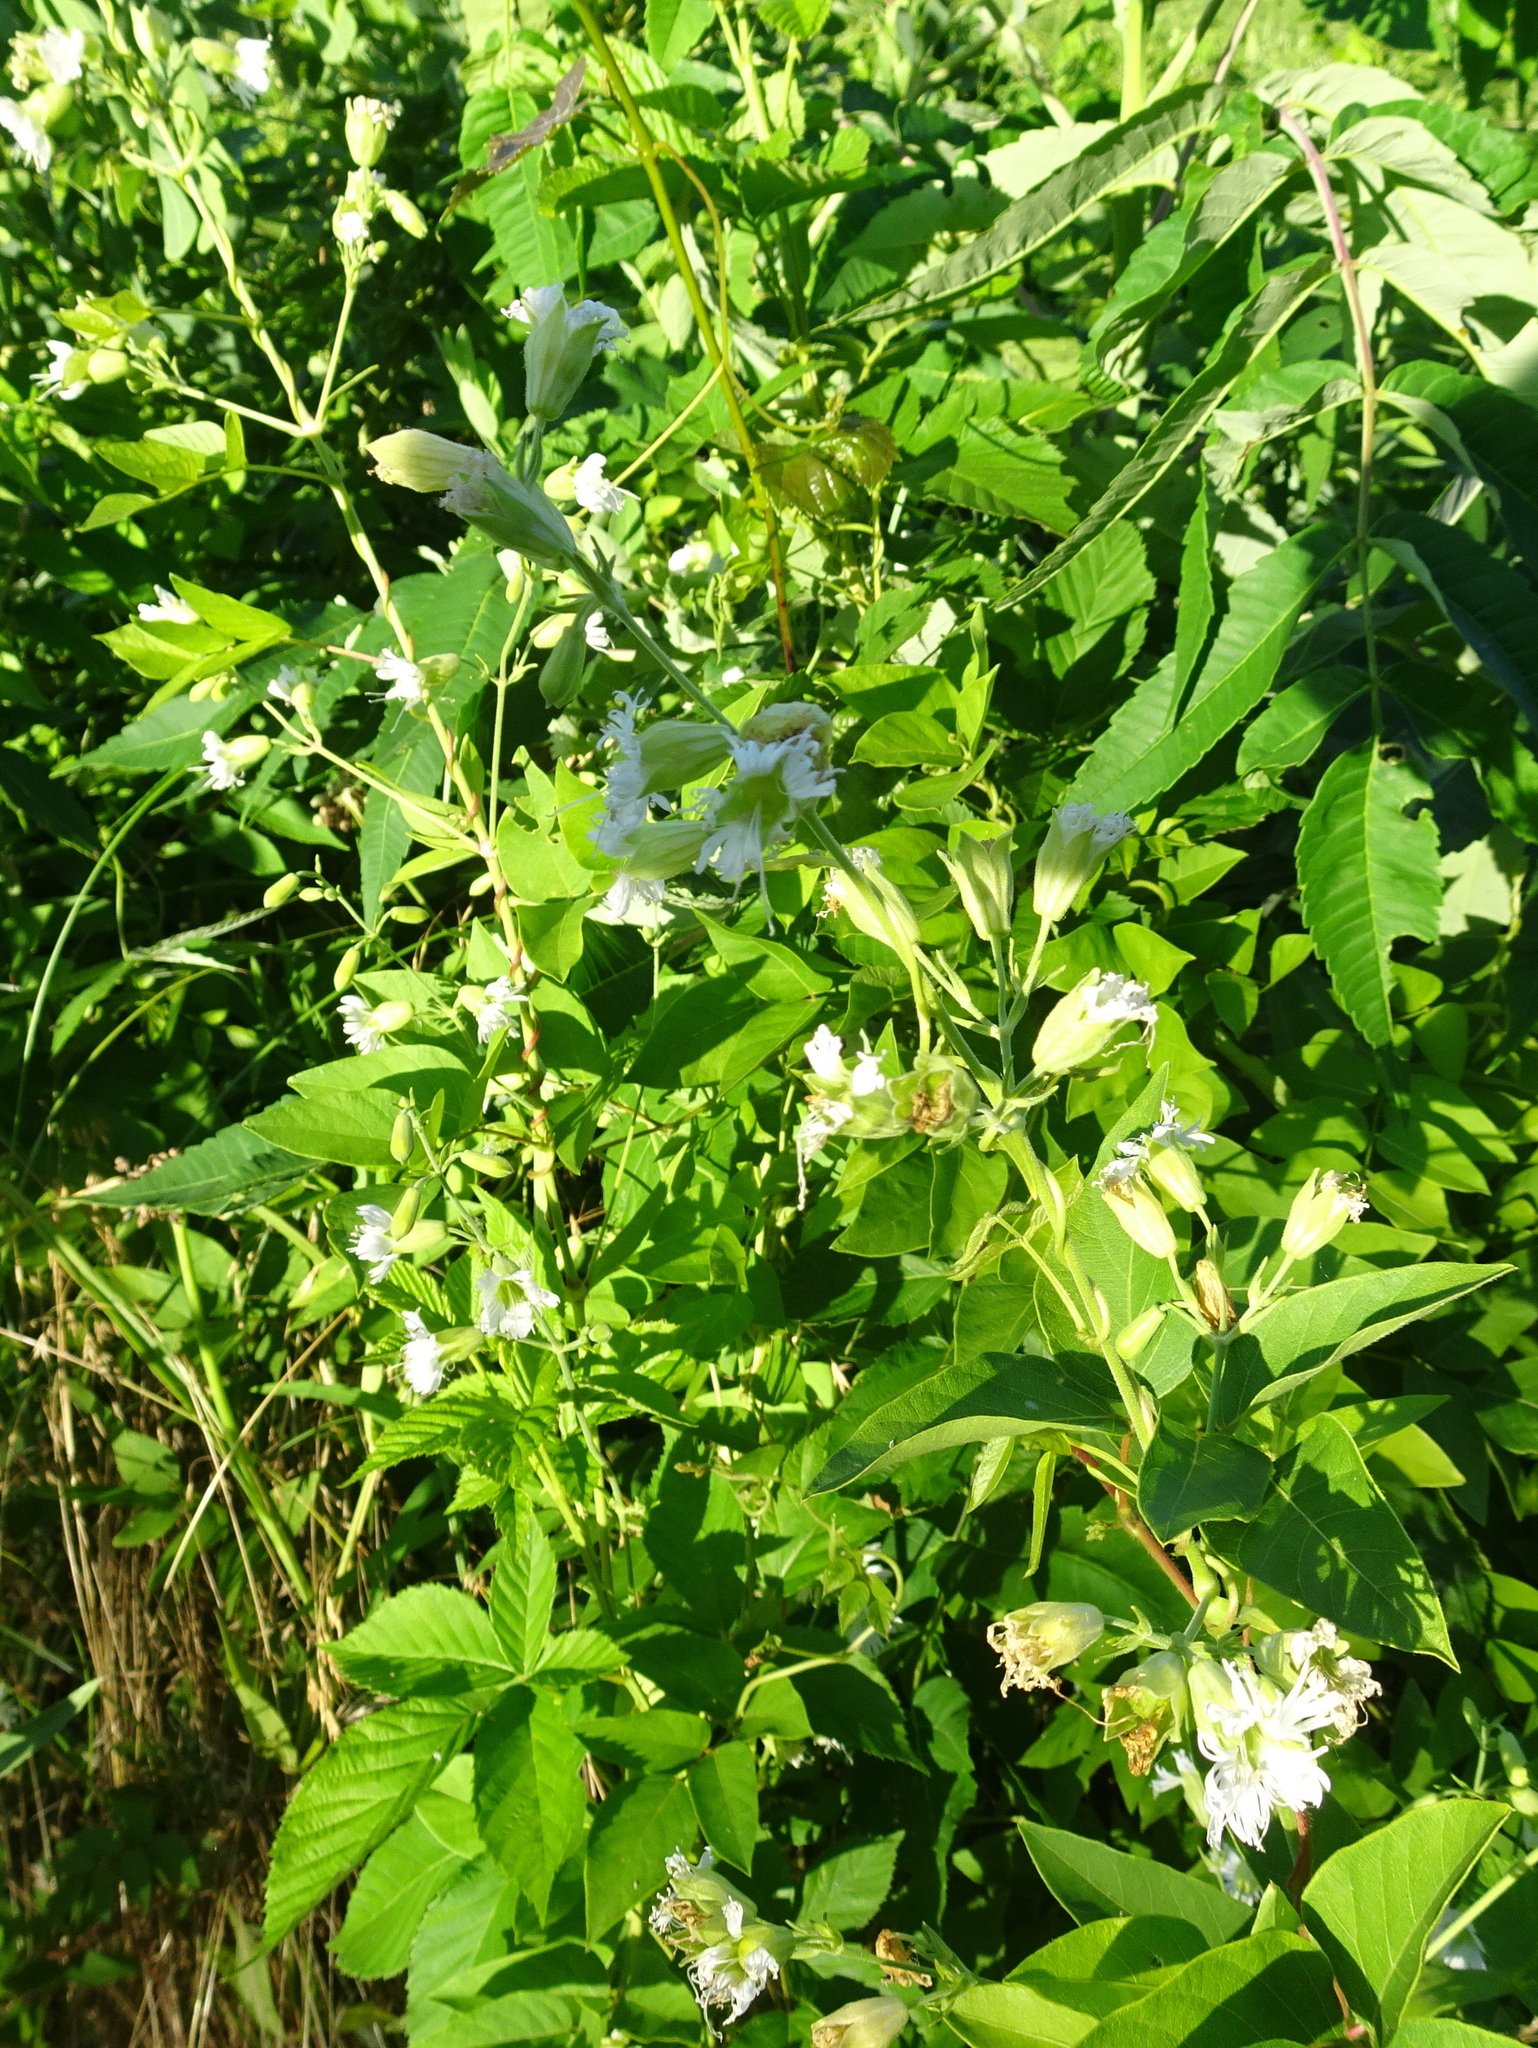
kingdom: Plantae
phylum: Tracheophyta
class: Magnoliopsida
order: Caryophyllales
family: Caryophyllaceae
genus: Silene
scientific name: Silene stellata
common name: Starry campion
